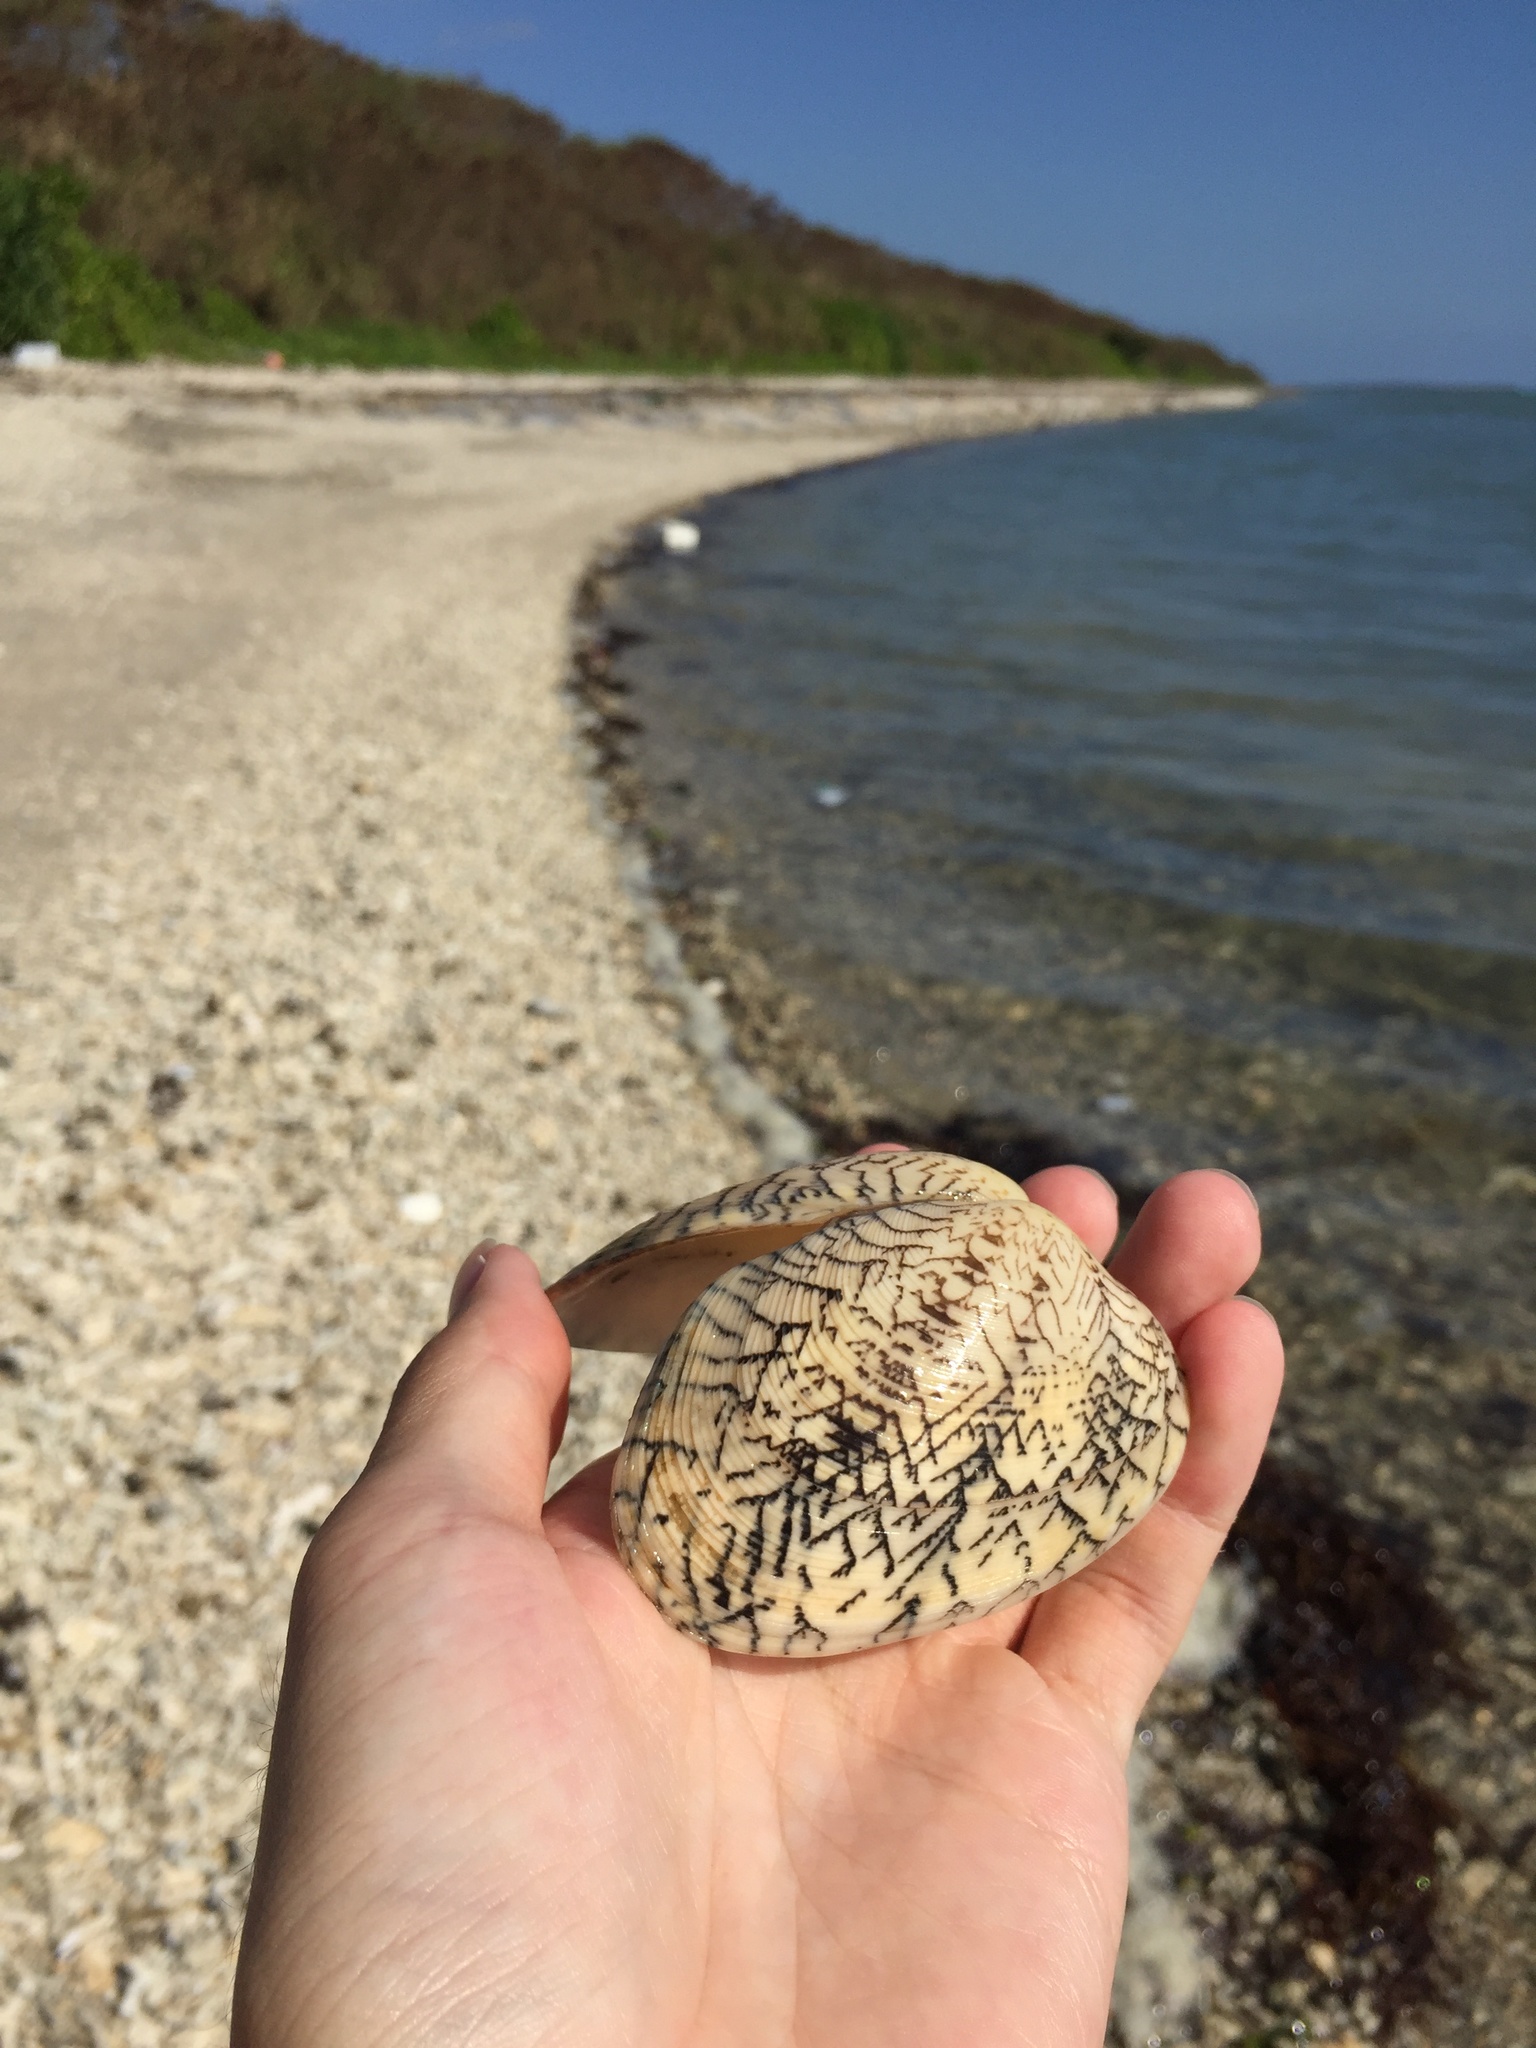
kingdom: Animalia
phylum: Mollusca
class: Bivalvia
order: Venerida
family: Veneridae
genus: Tapes
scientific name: Tapes literatus
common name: Lettered carpet shell
